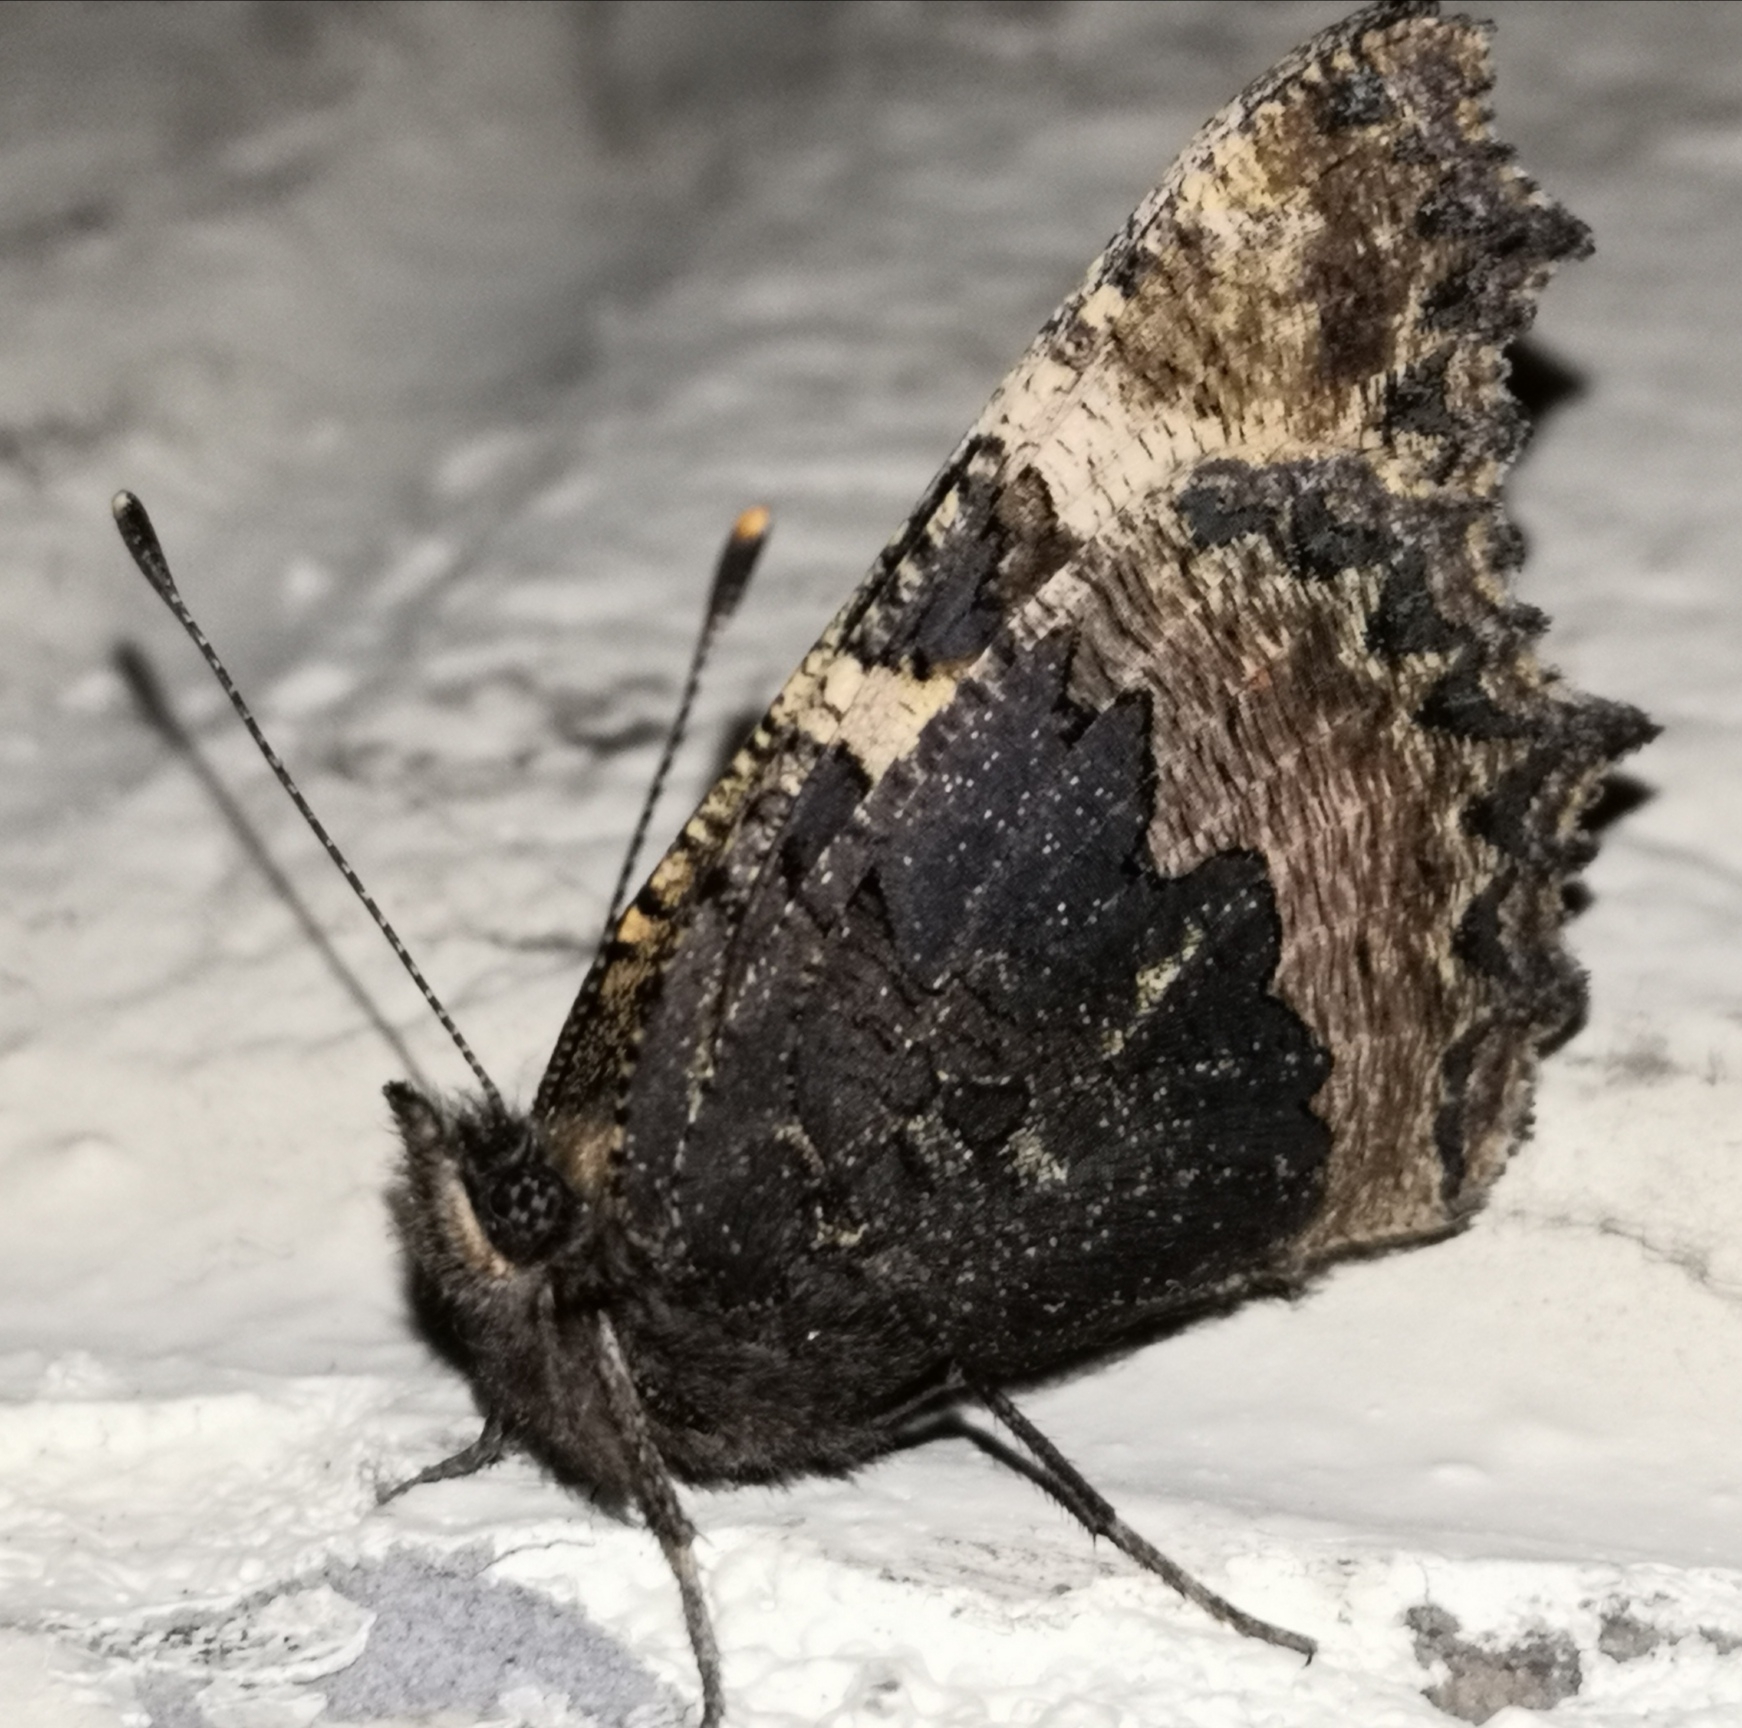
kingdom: Animalia
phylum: Arthropoda
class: Insecta
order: Lepidoptera
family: Nymphalidae
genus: Aglais
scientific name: Aglais urticae
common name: Small tortoiseshell
